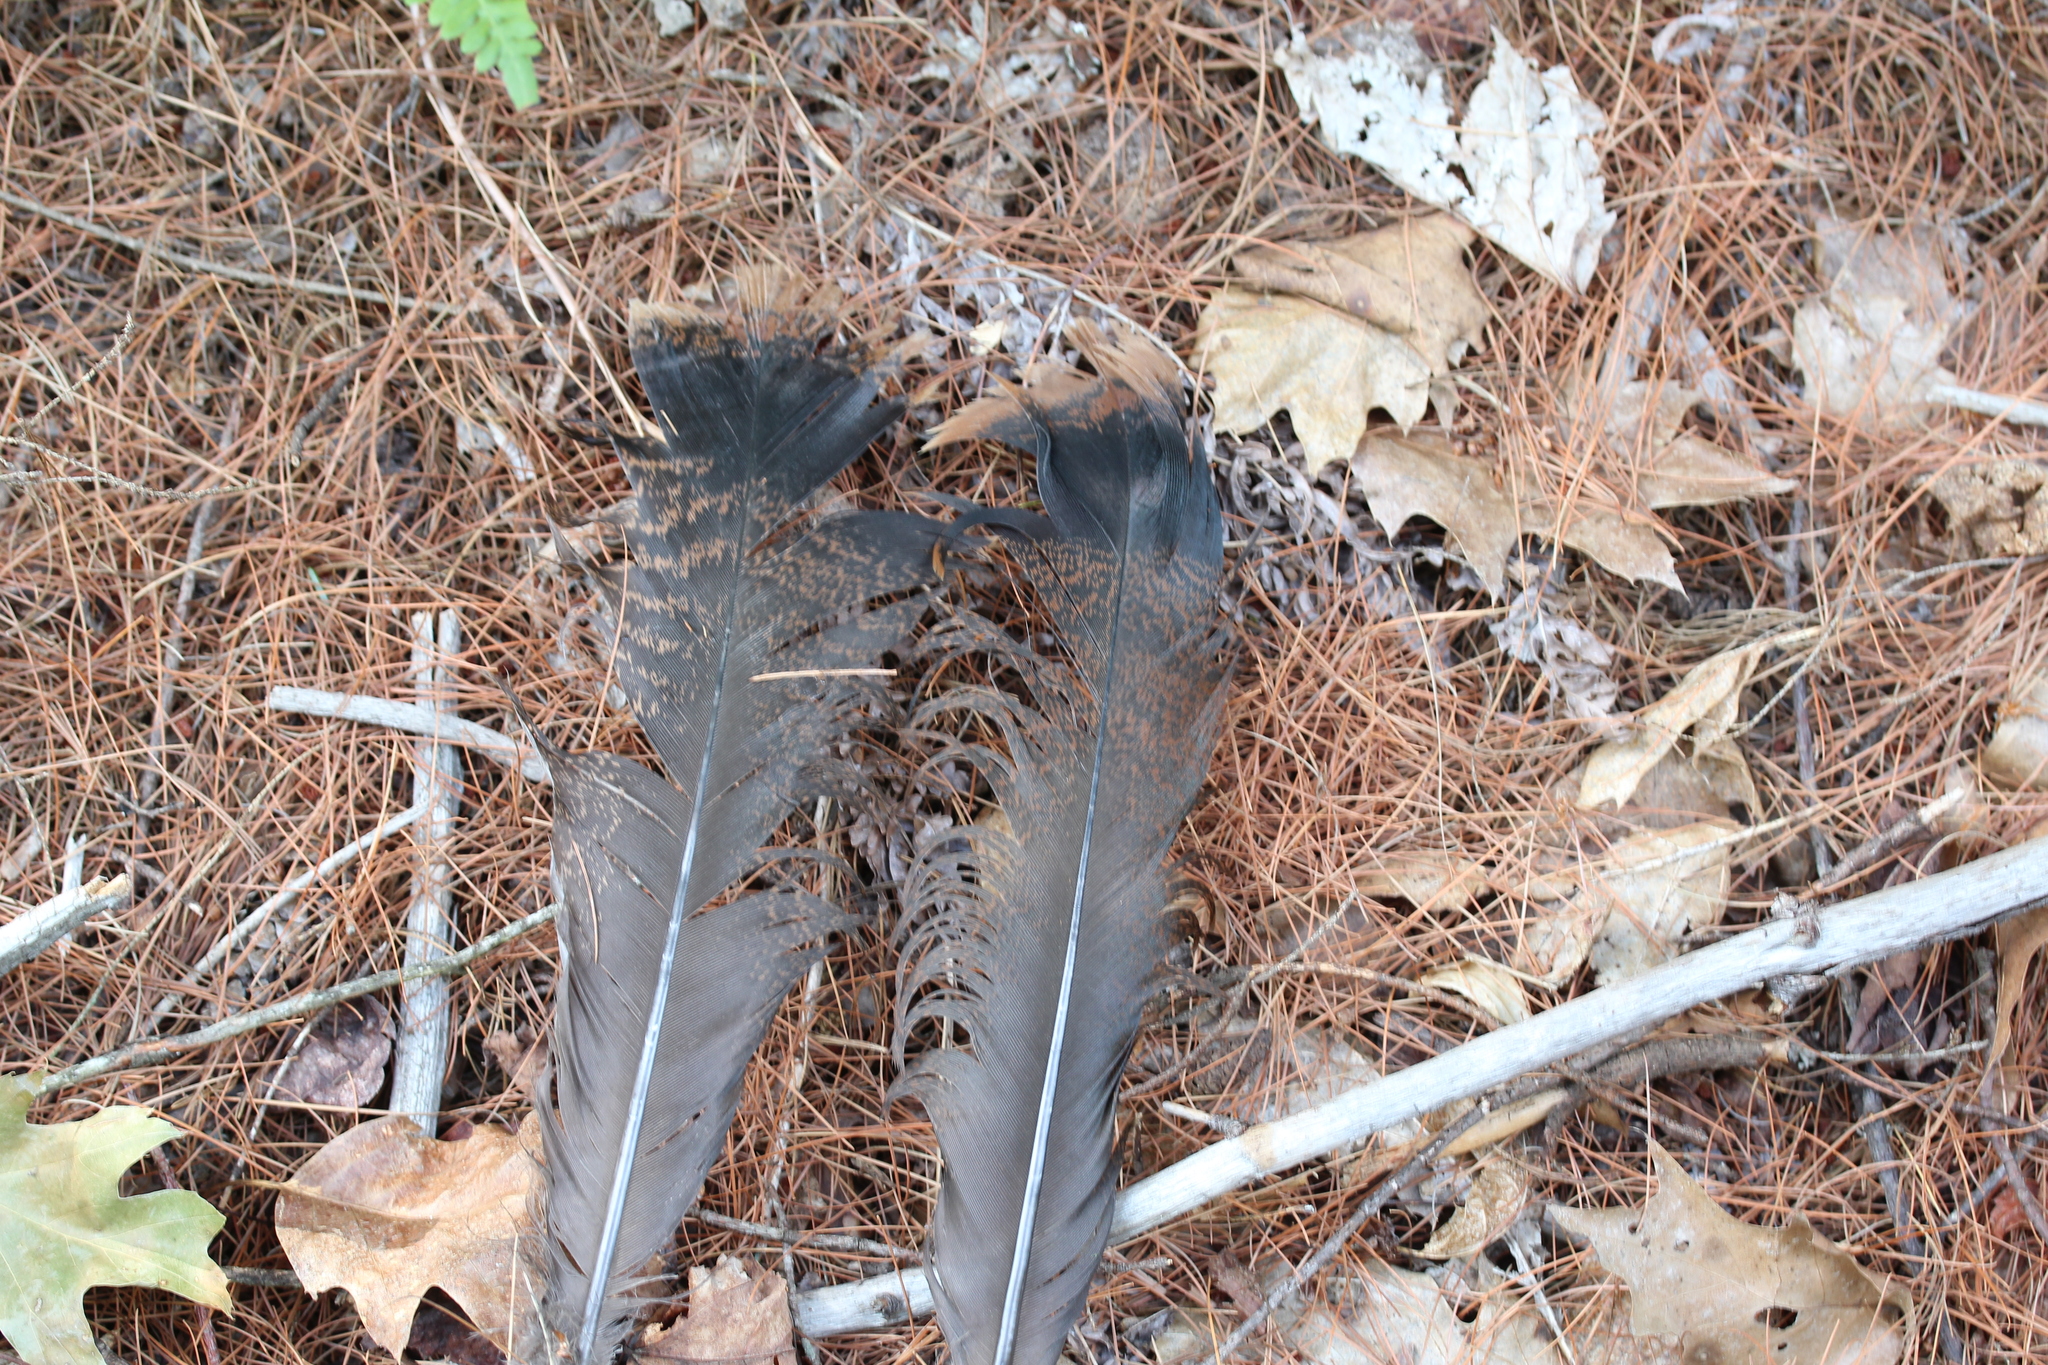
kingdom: Animalia
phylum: Chordata
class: Aves
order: Galliformes
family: Phasianidae
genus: Meleagris
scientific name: Meleagris gallopavo
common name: Wild turkey
